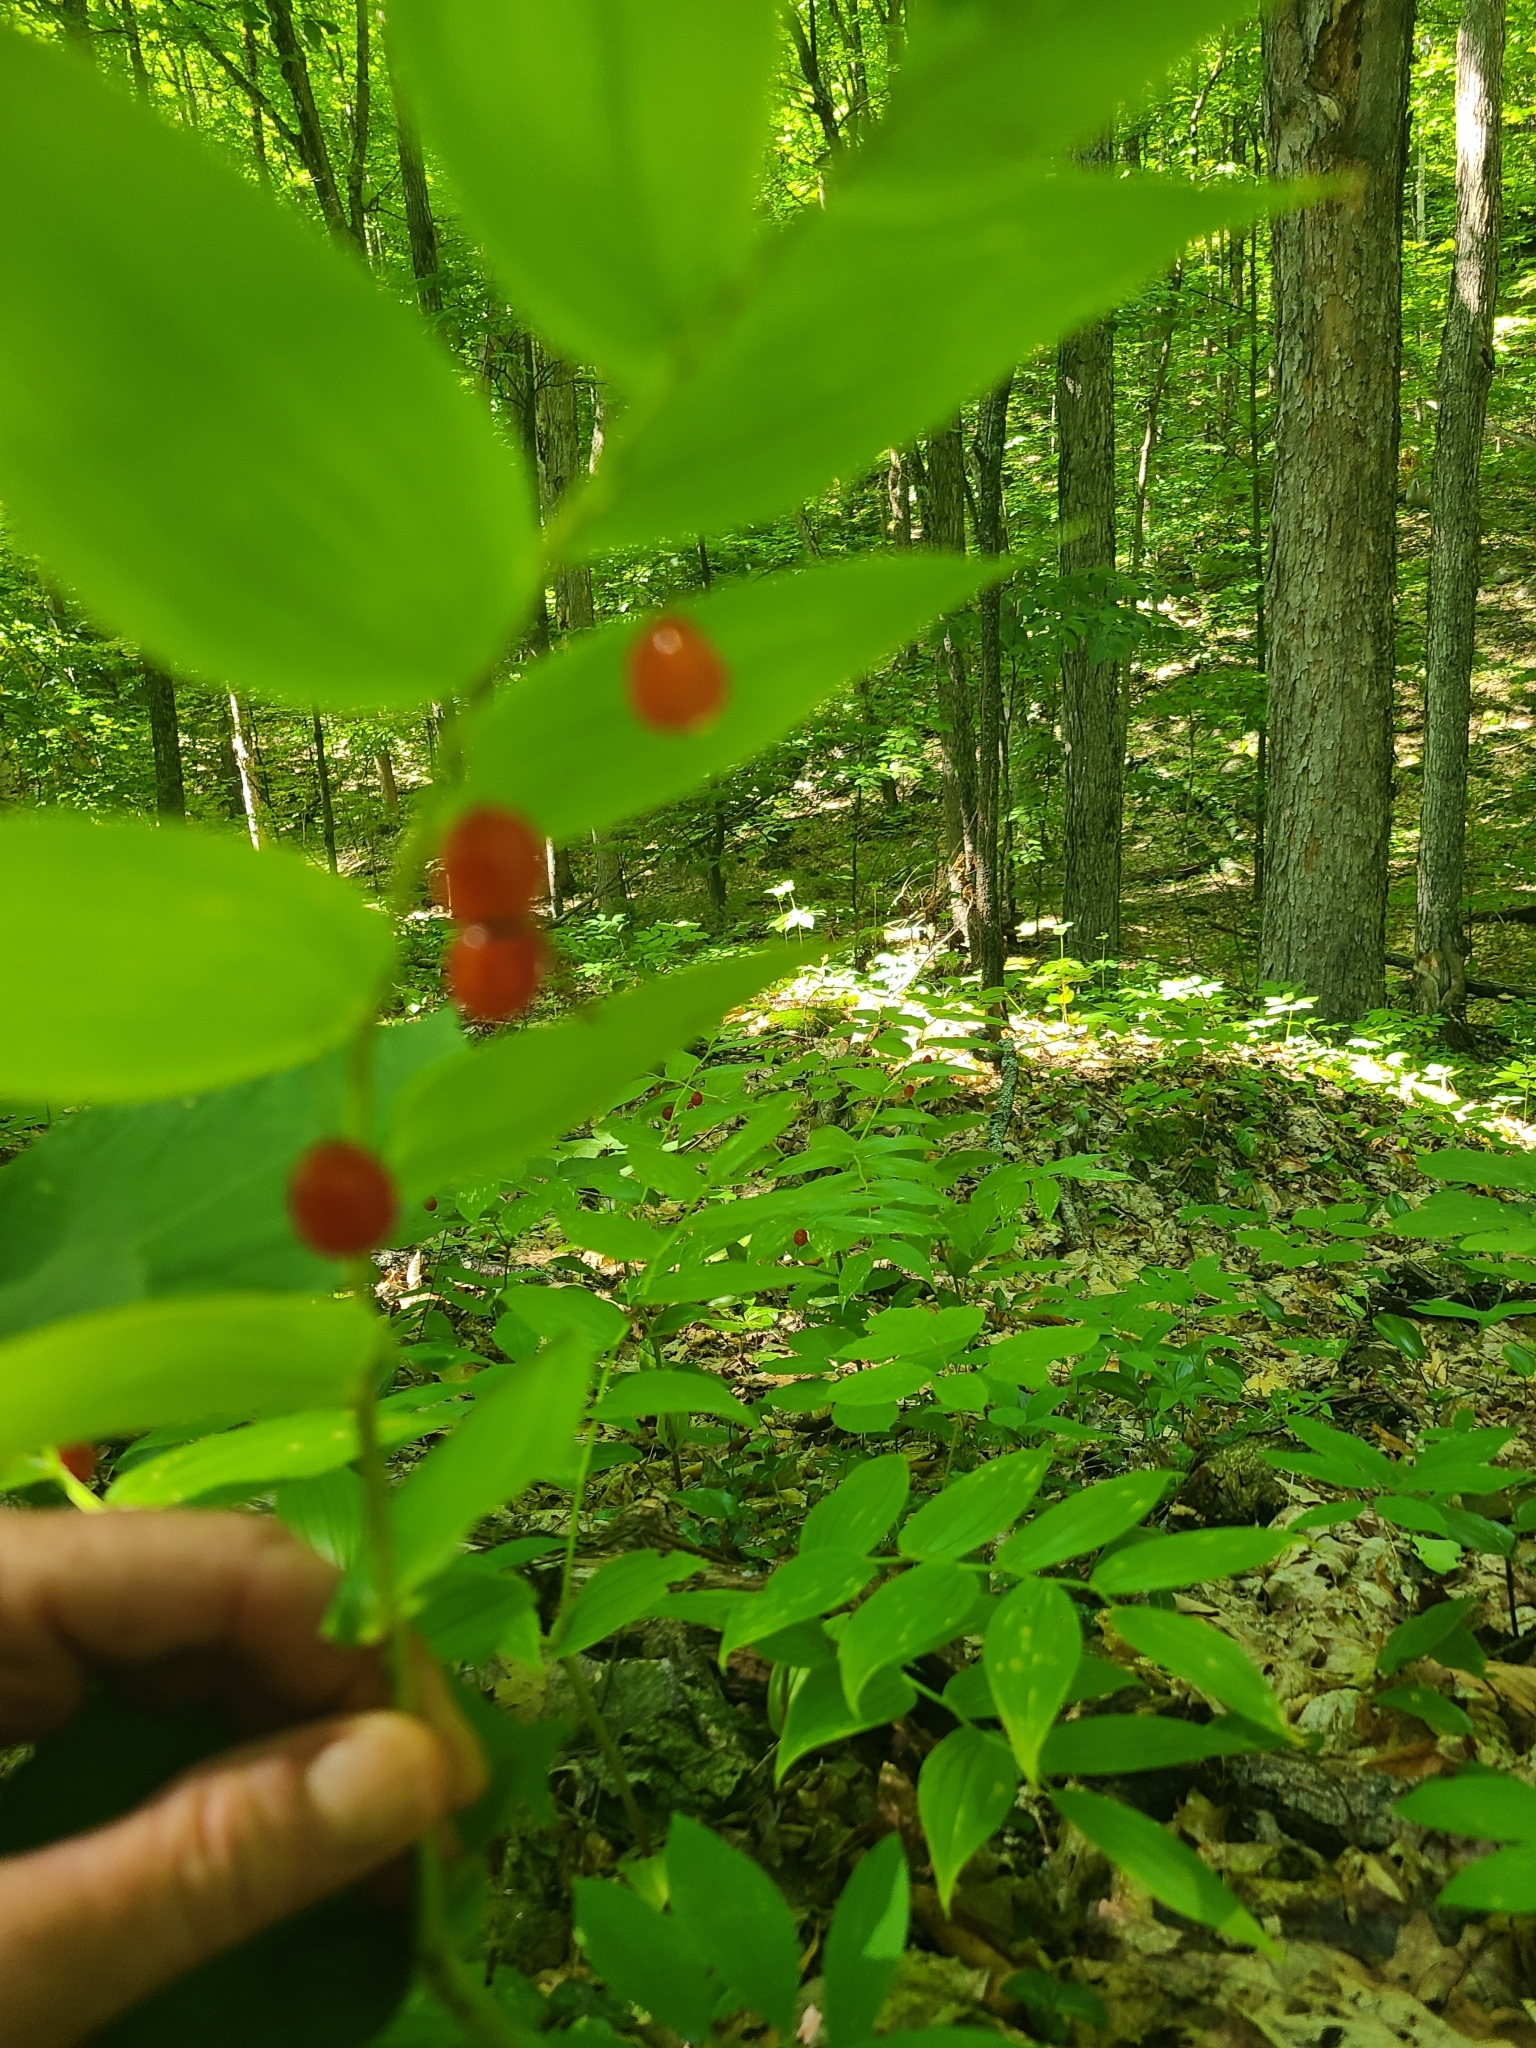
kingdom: Plantae
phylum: Tracheophyta
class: Liliopsida
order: Liliales
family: Liliaceae
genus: Streptopus
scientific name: Streptopus lanceolatus
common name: Rose mandarin
